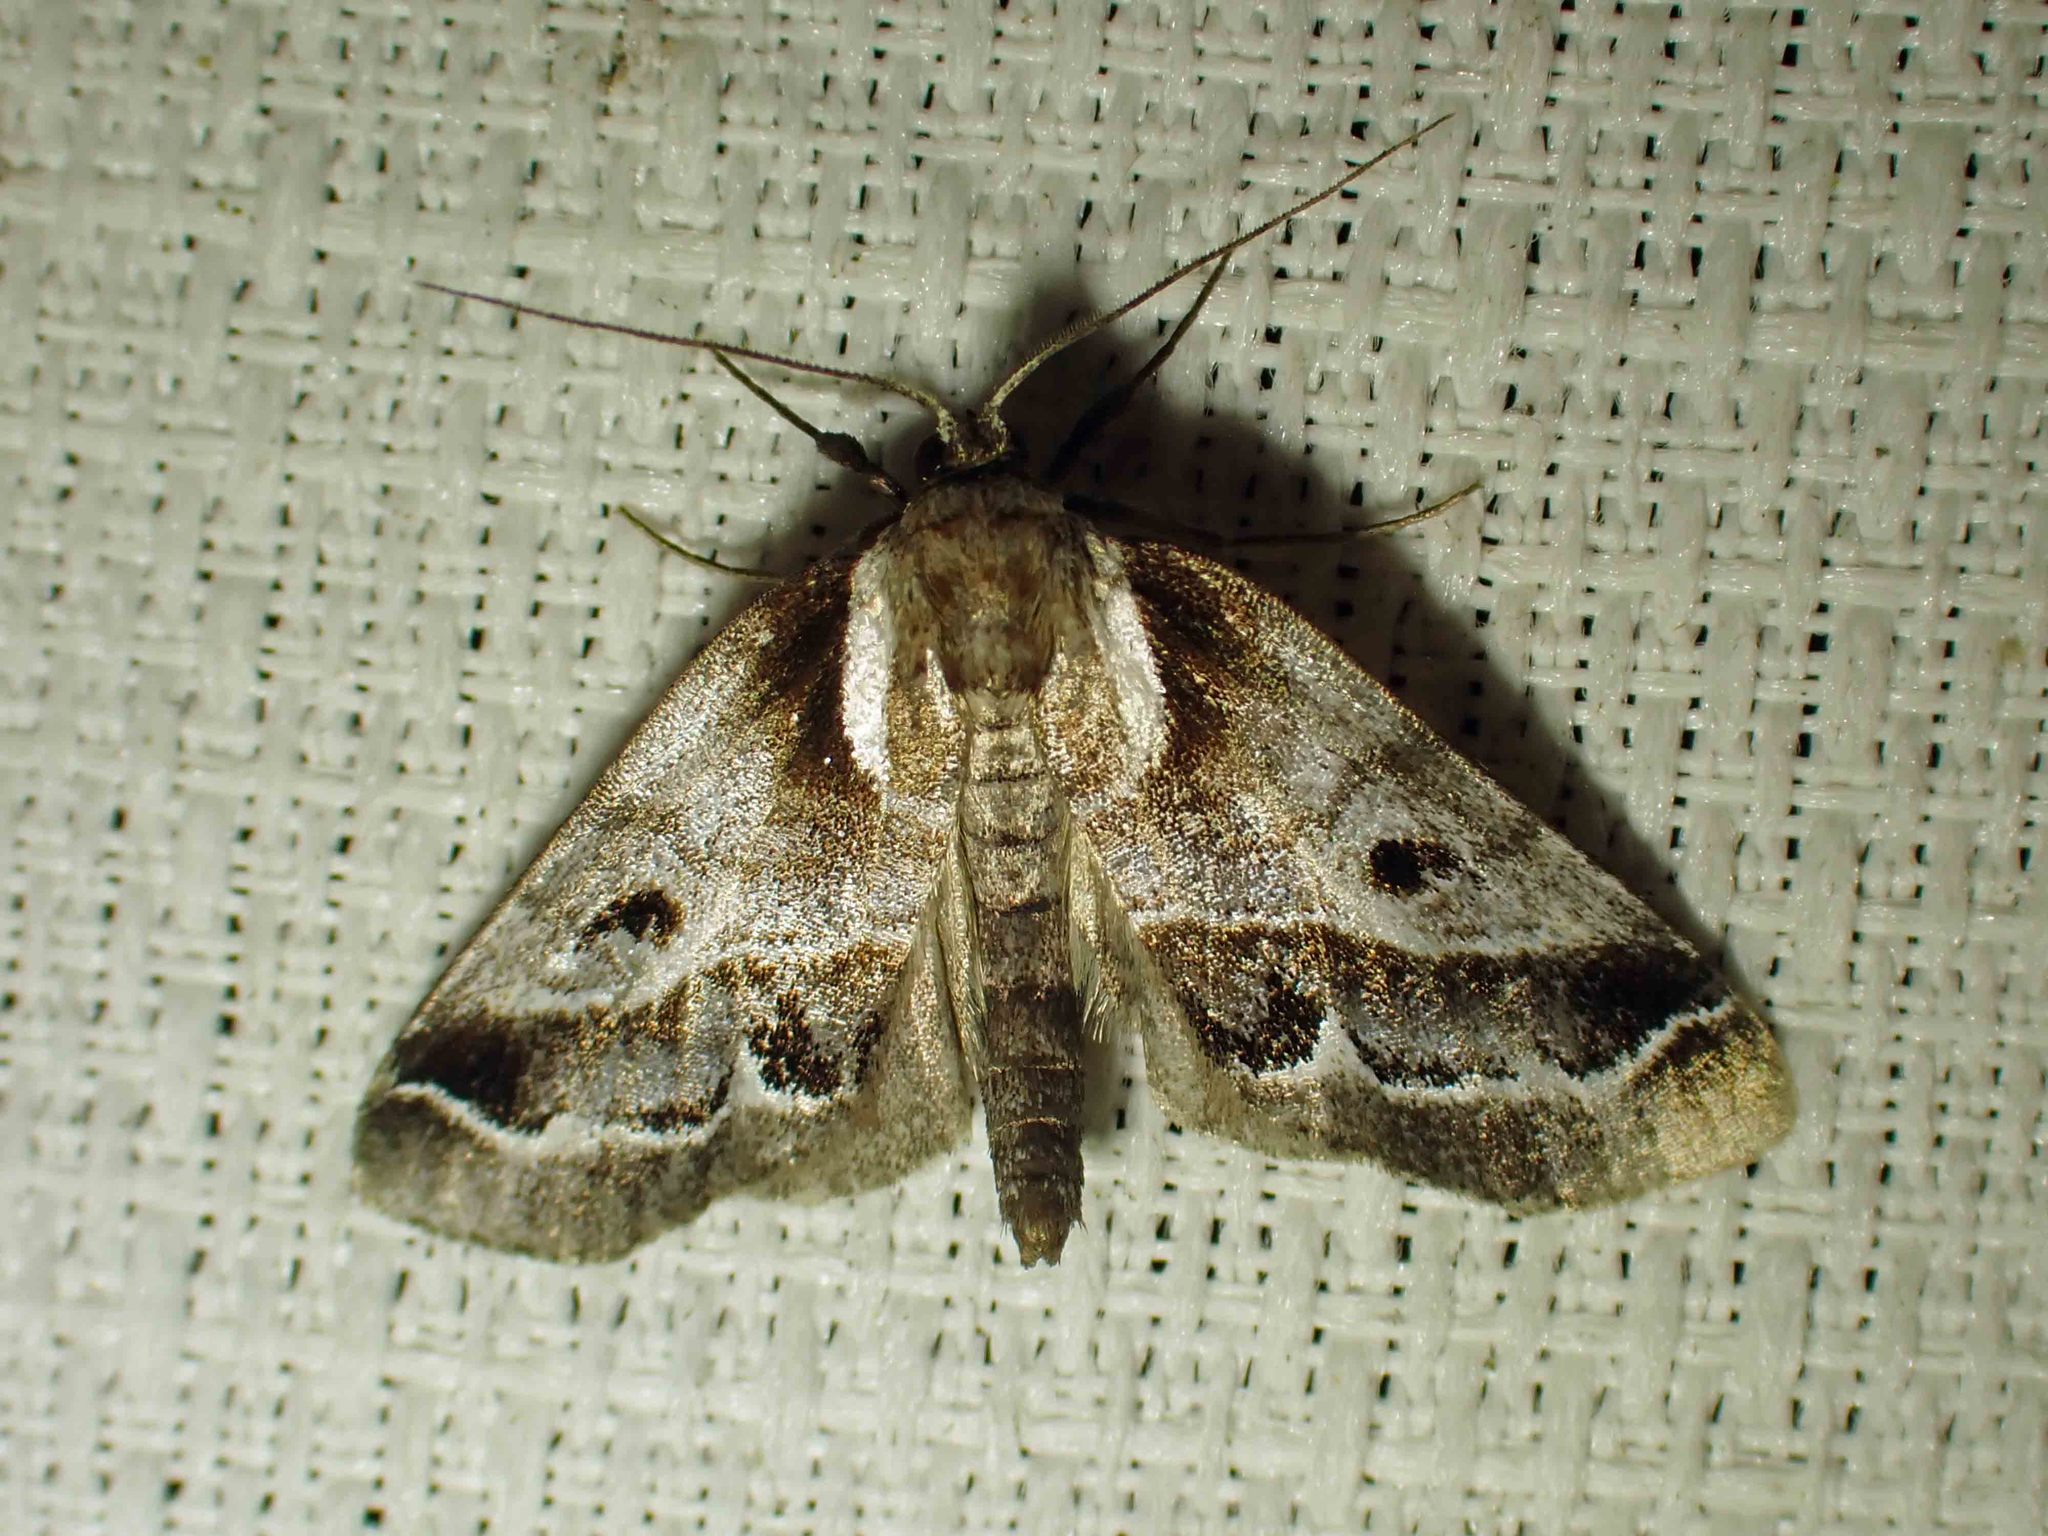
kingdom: Animalia
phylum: Arthropoda
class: Insecta
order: Lepidoptera
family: Nolidae
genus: Baileya
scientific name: Baileya doubledayi
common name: Doubleday's baileya moth
